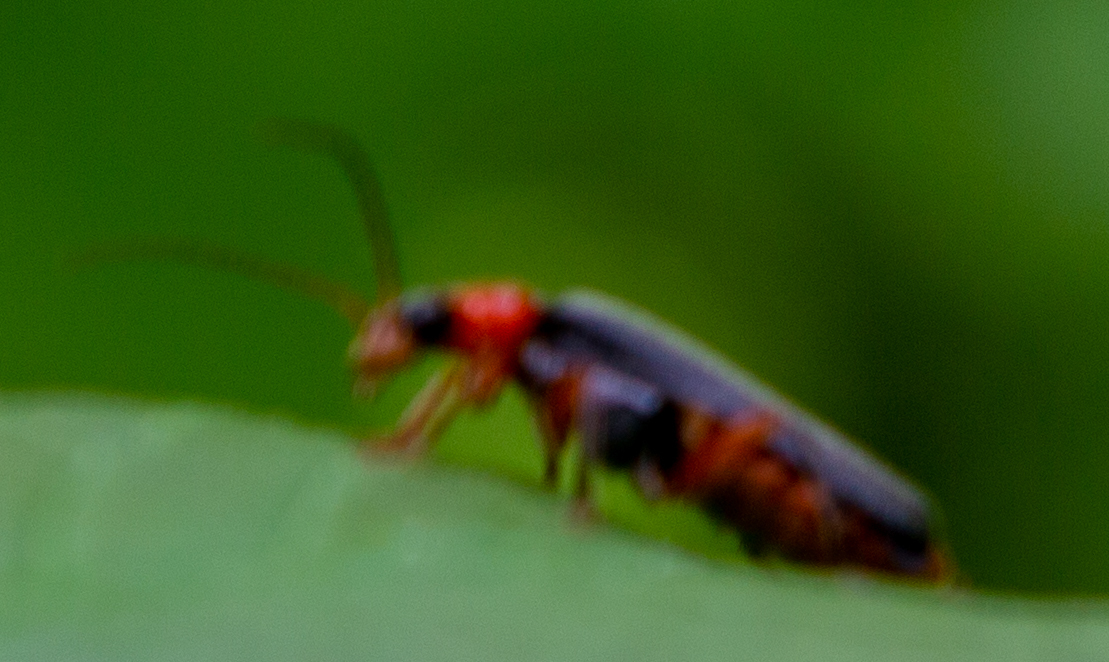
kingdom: Animalia
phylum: Arthropoda
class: Insecta
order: Coleoptera
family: Cantharidae
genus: Cantharis
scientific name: Cantharis pellucida
